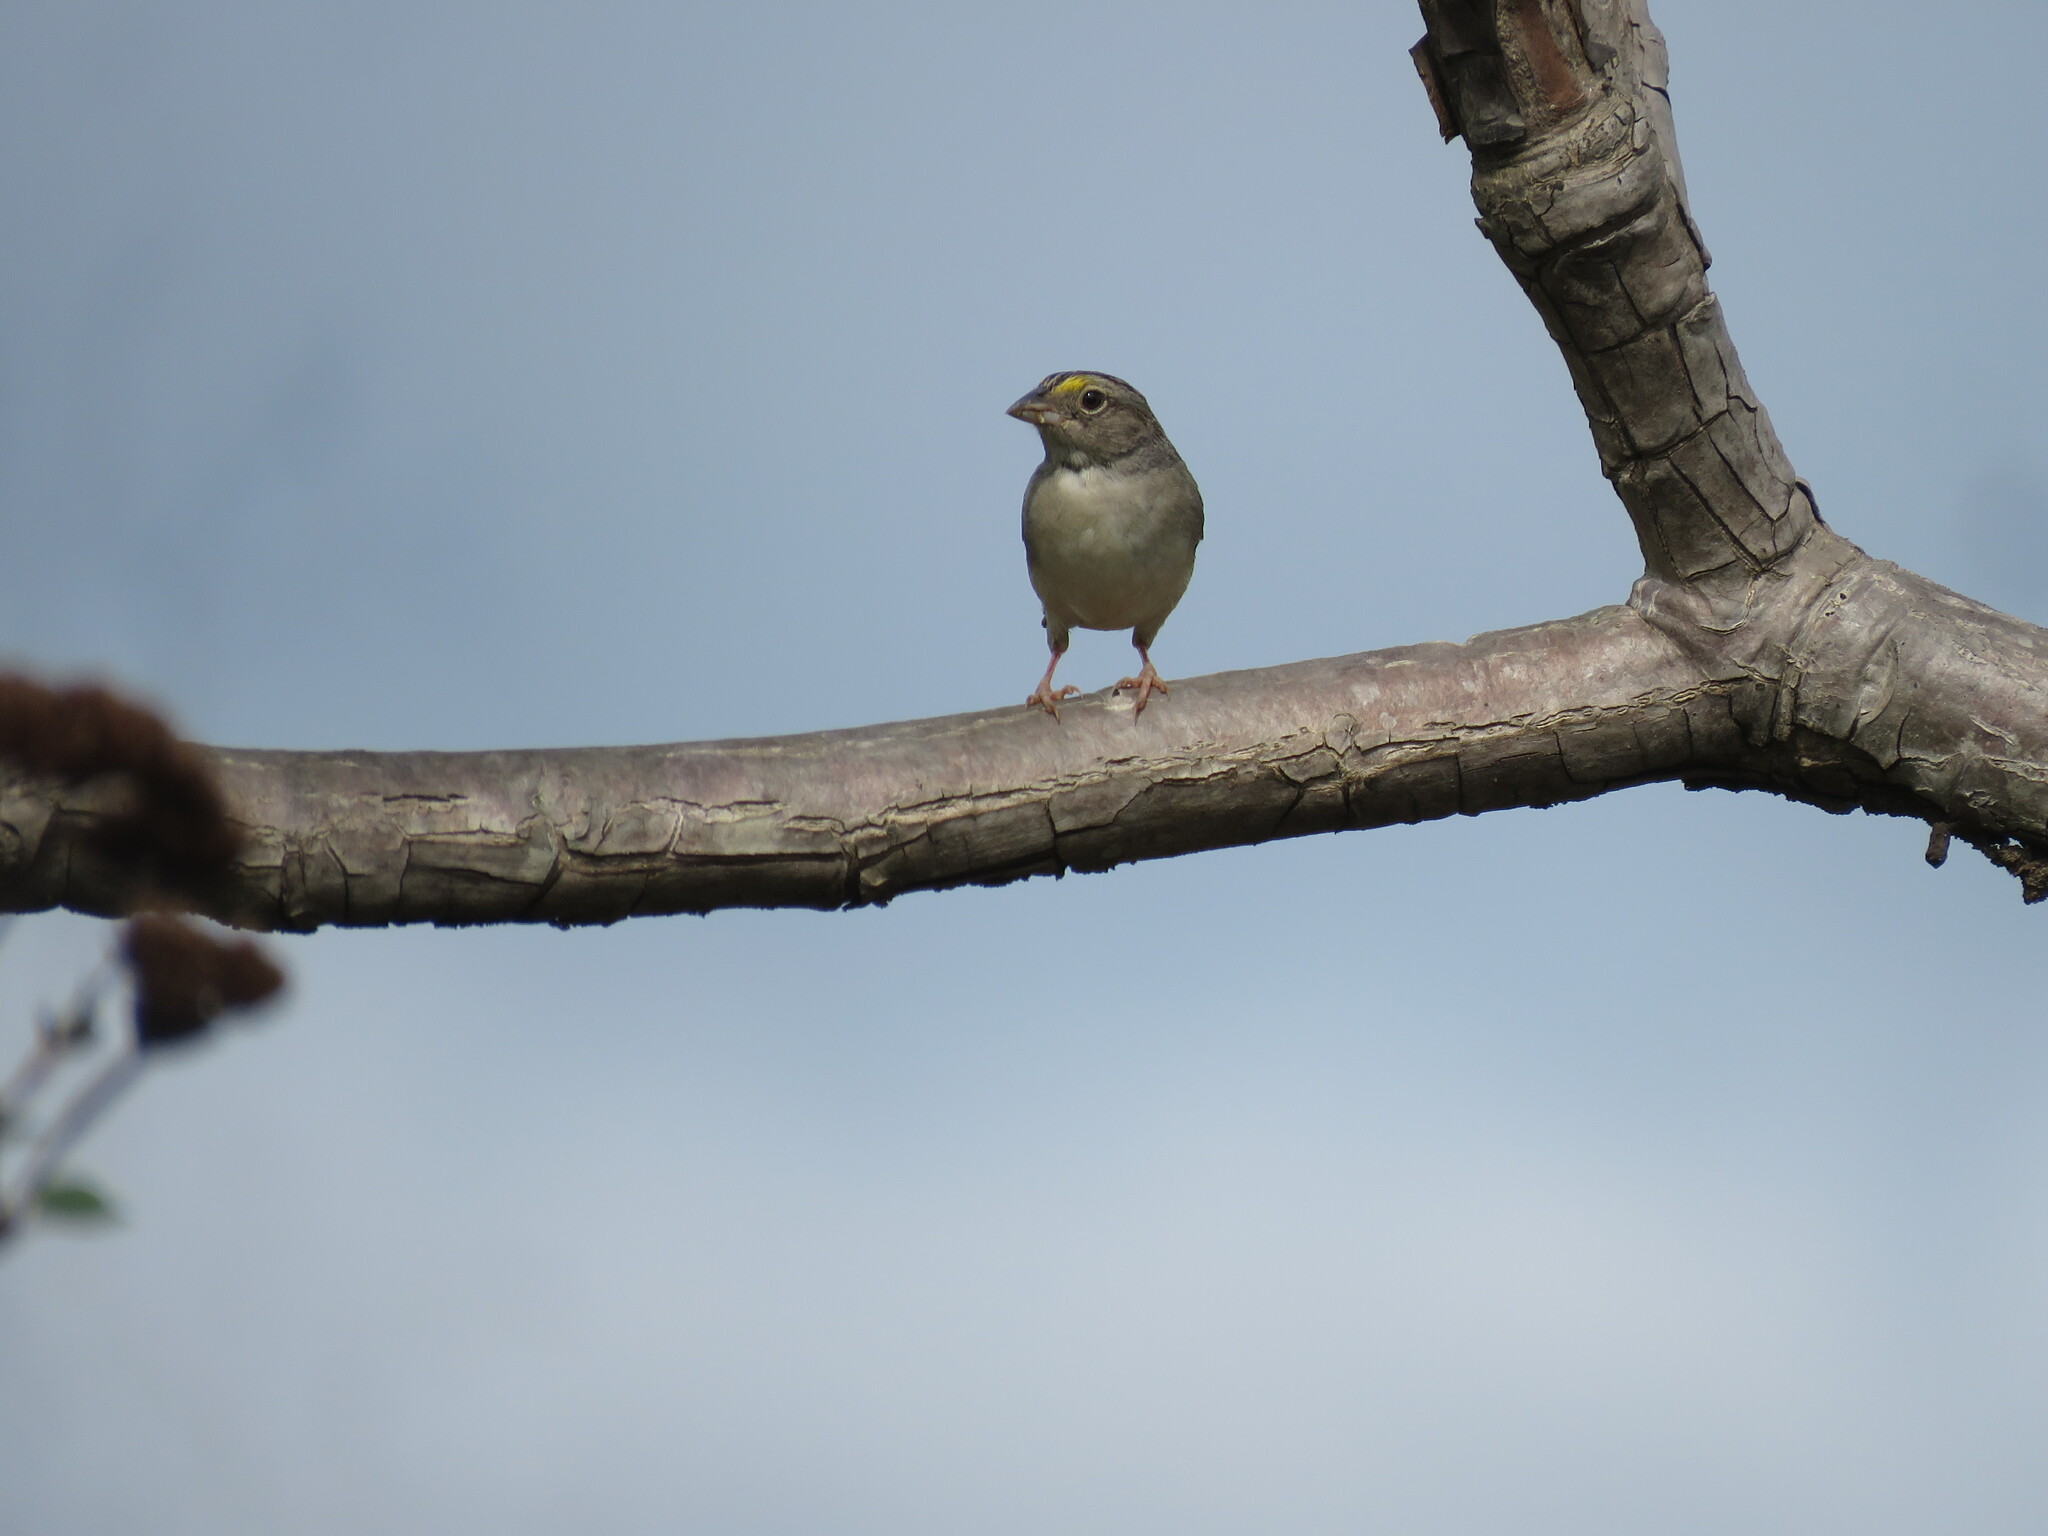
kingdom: Animalia
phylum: Chordata
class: Aves
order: Passeriformes
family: Passerellidae
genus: Ammodramus
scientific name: Ammodramus humeralis
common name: Grassland sparrow
